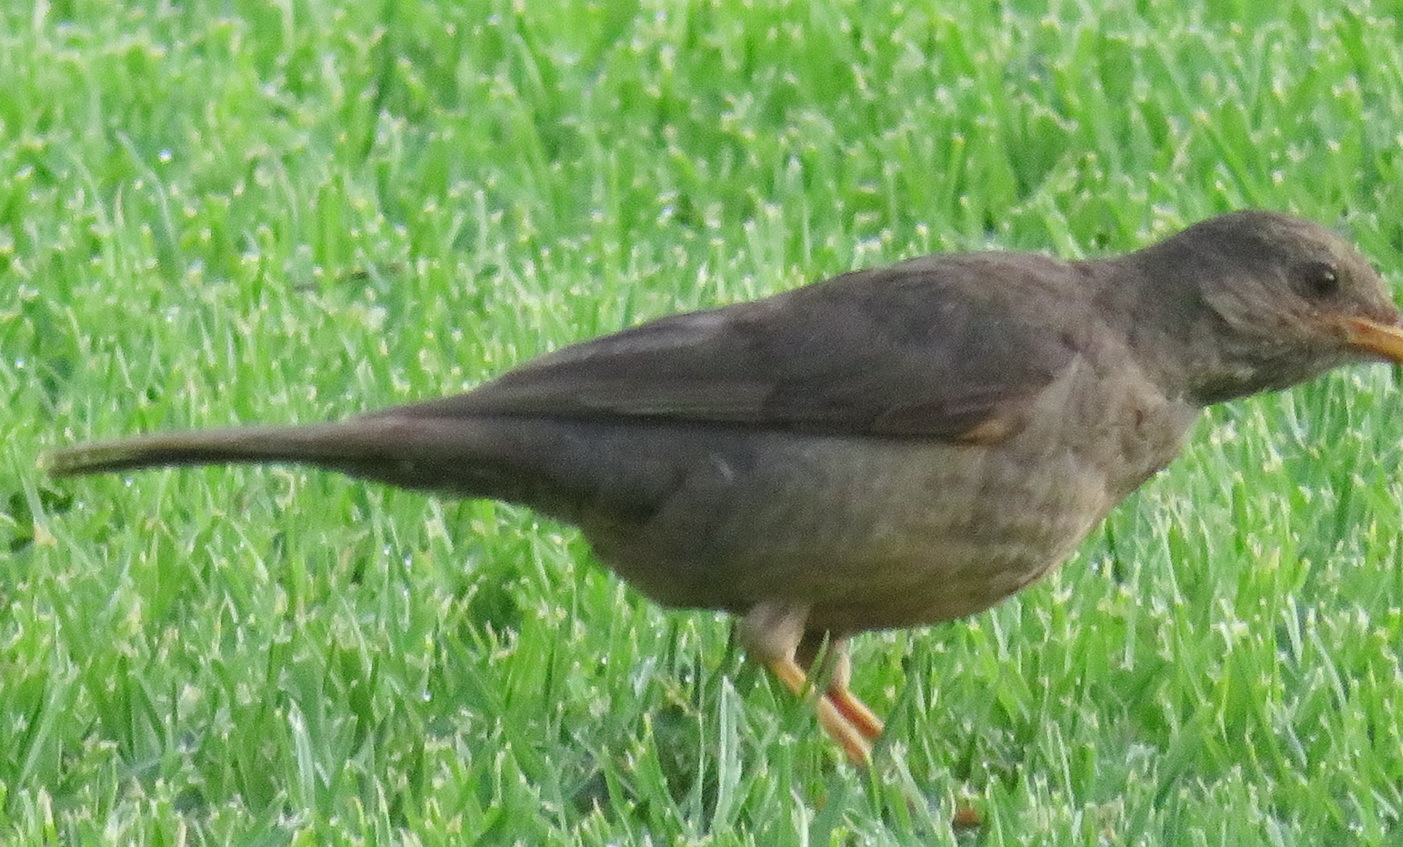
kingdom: Animalia
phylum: Chordata
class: Aves
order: Passeriformes
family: Turdidae
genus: Turdus
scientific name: Turdus smithi
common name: Karoo thrush
